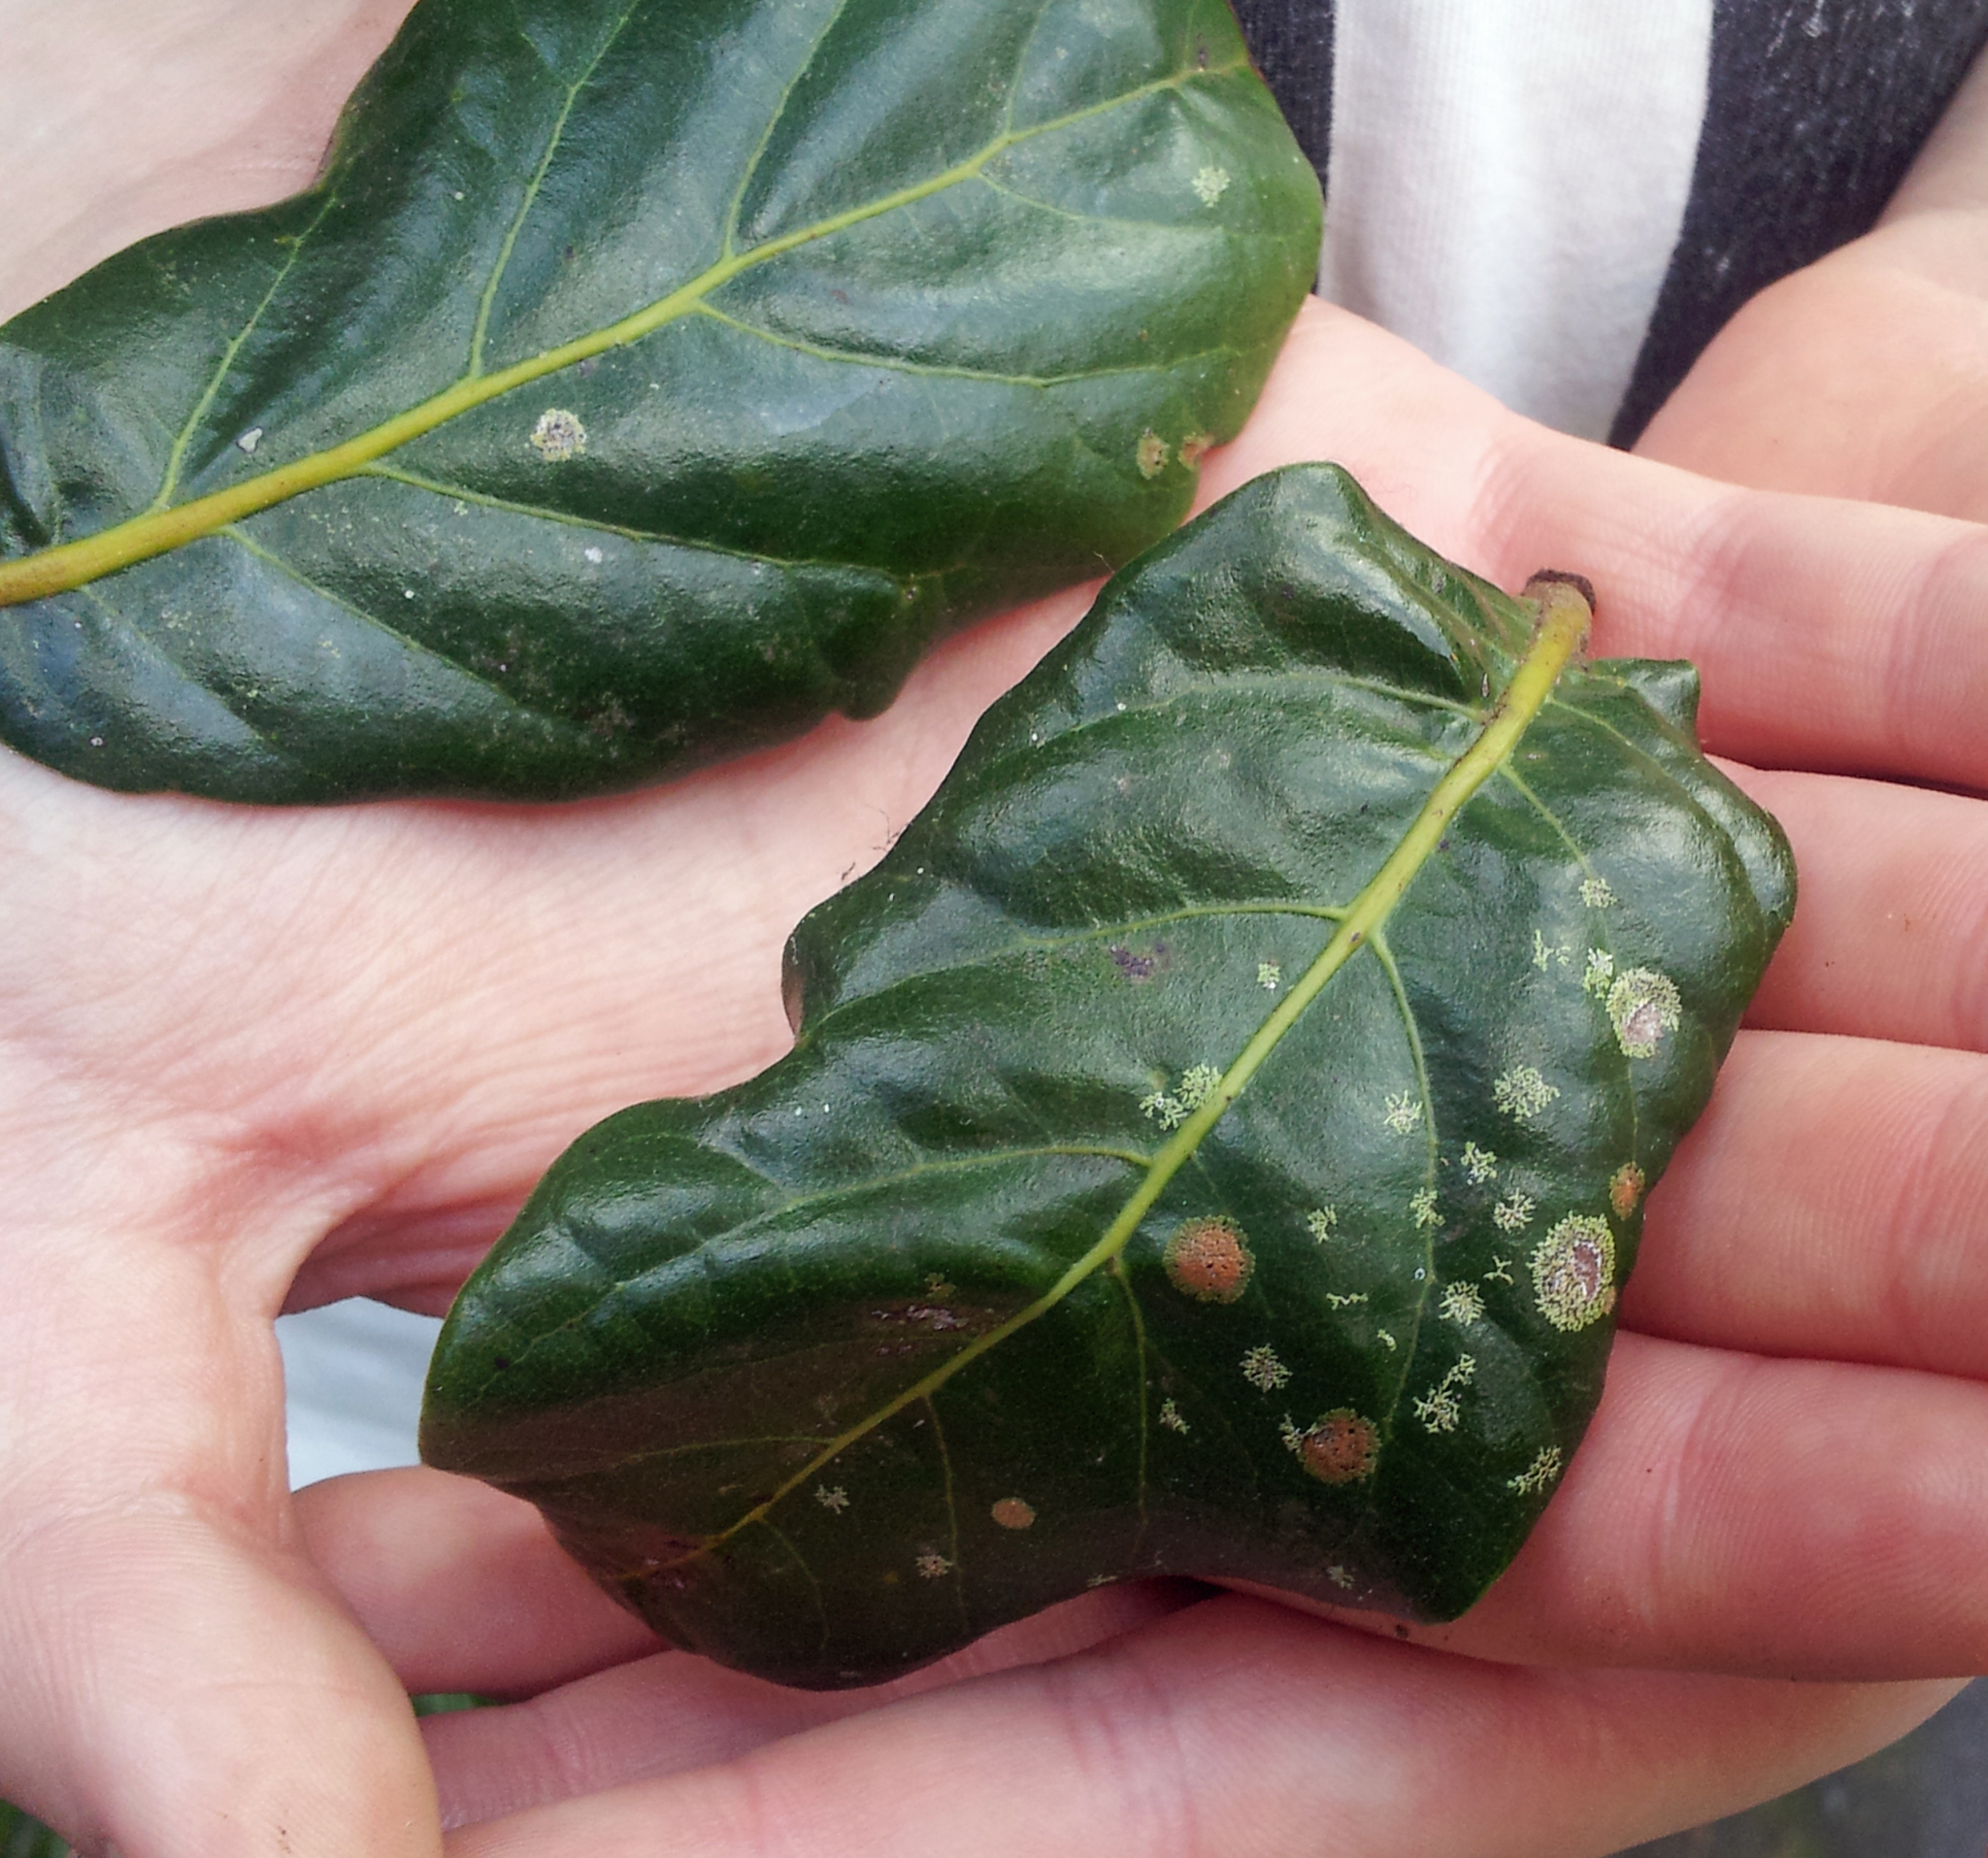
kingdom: Fungi
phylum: Ascomycota
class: Dothideomycetes
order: Strigulales
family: Strigulaceae
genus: Phyllocharis
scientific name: Phyllocharis orbicularis
